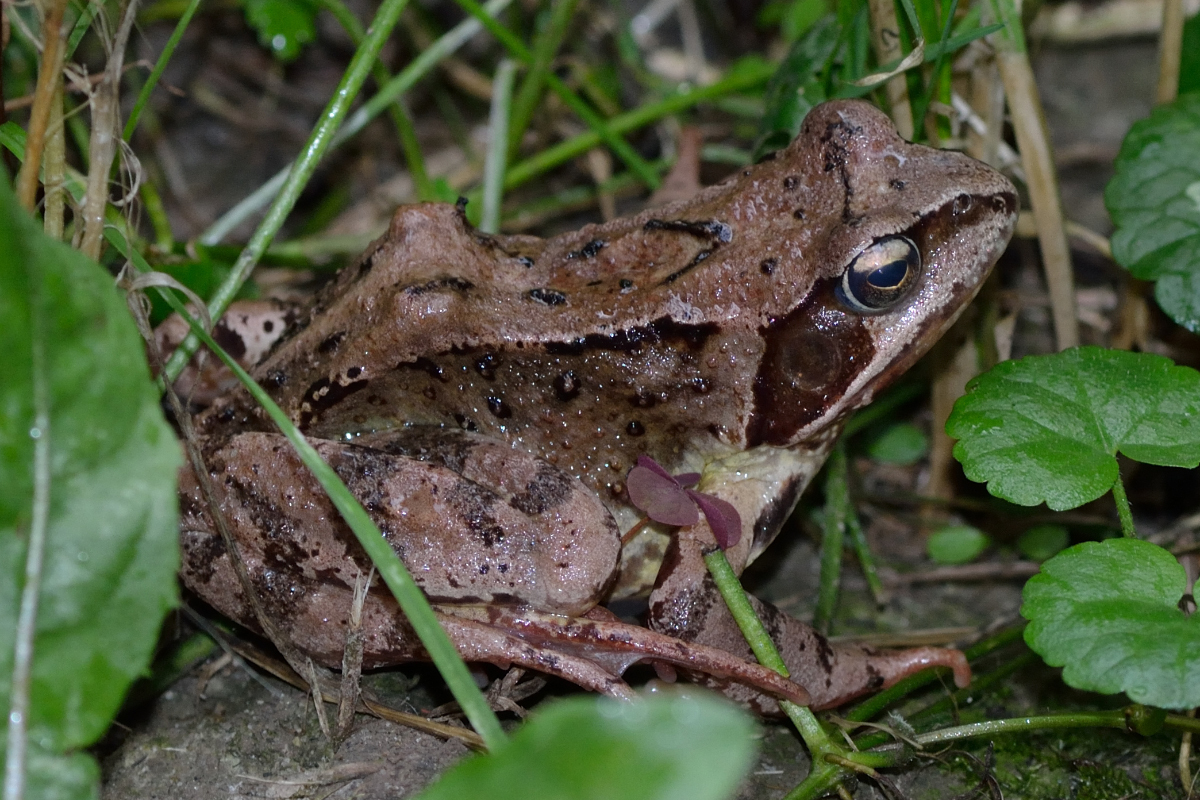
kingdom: Animalia
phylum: Chordata
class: Amphibia
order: Anura
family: Ranidae
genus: Rana
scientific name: Rana temporaria
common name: Common frog
